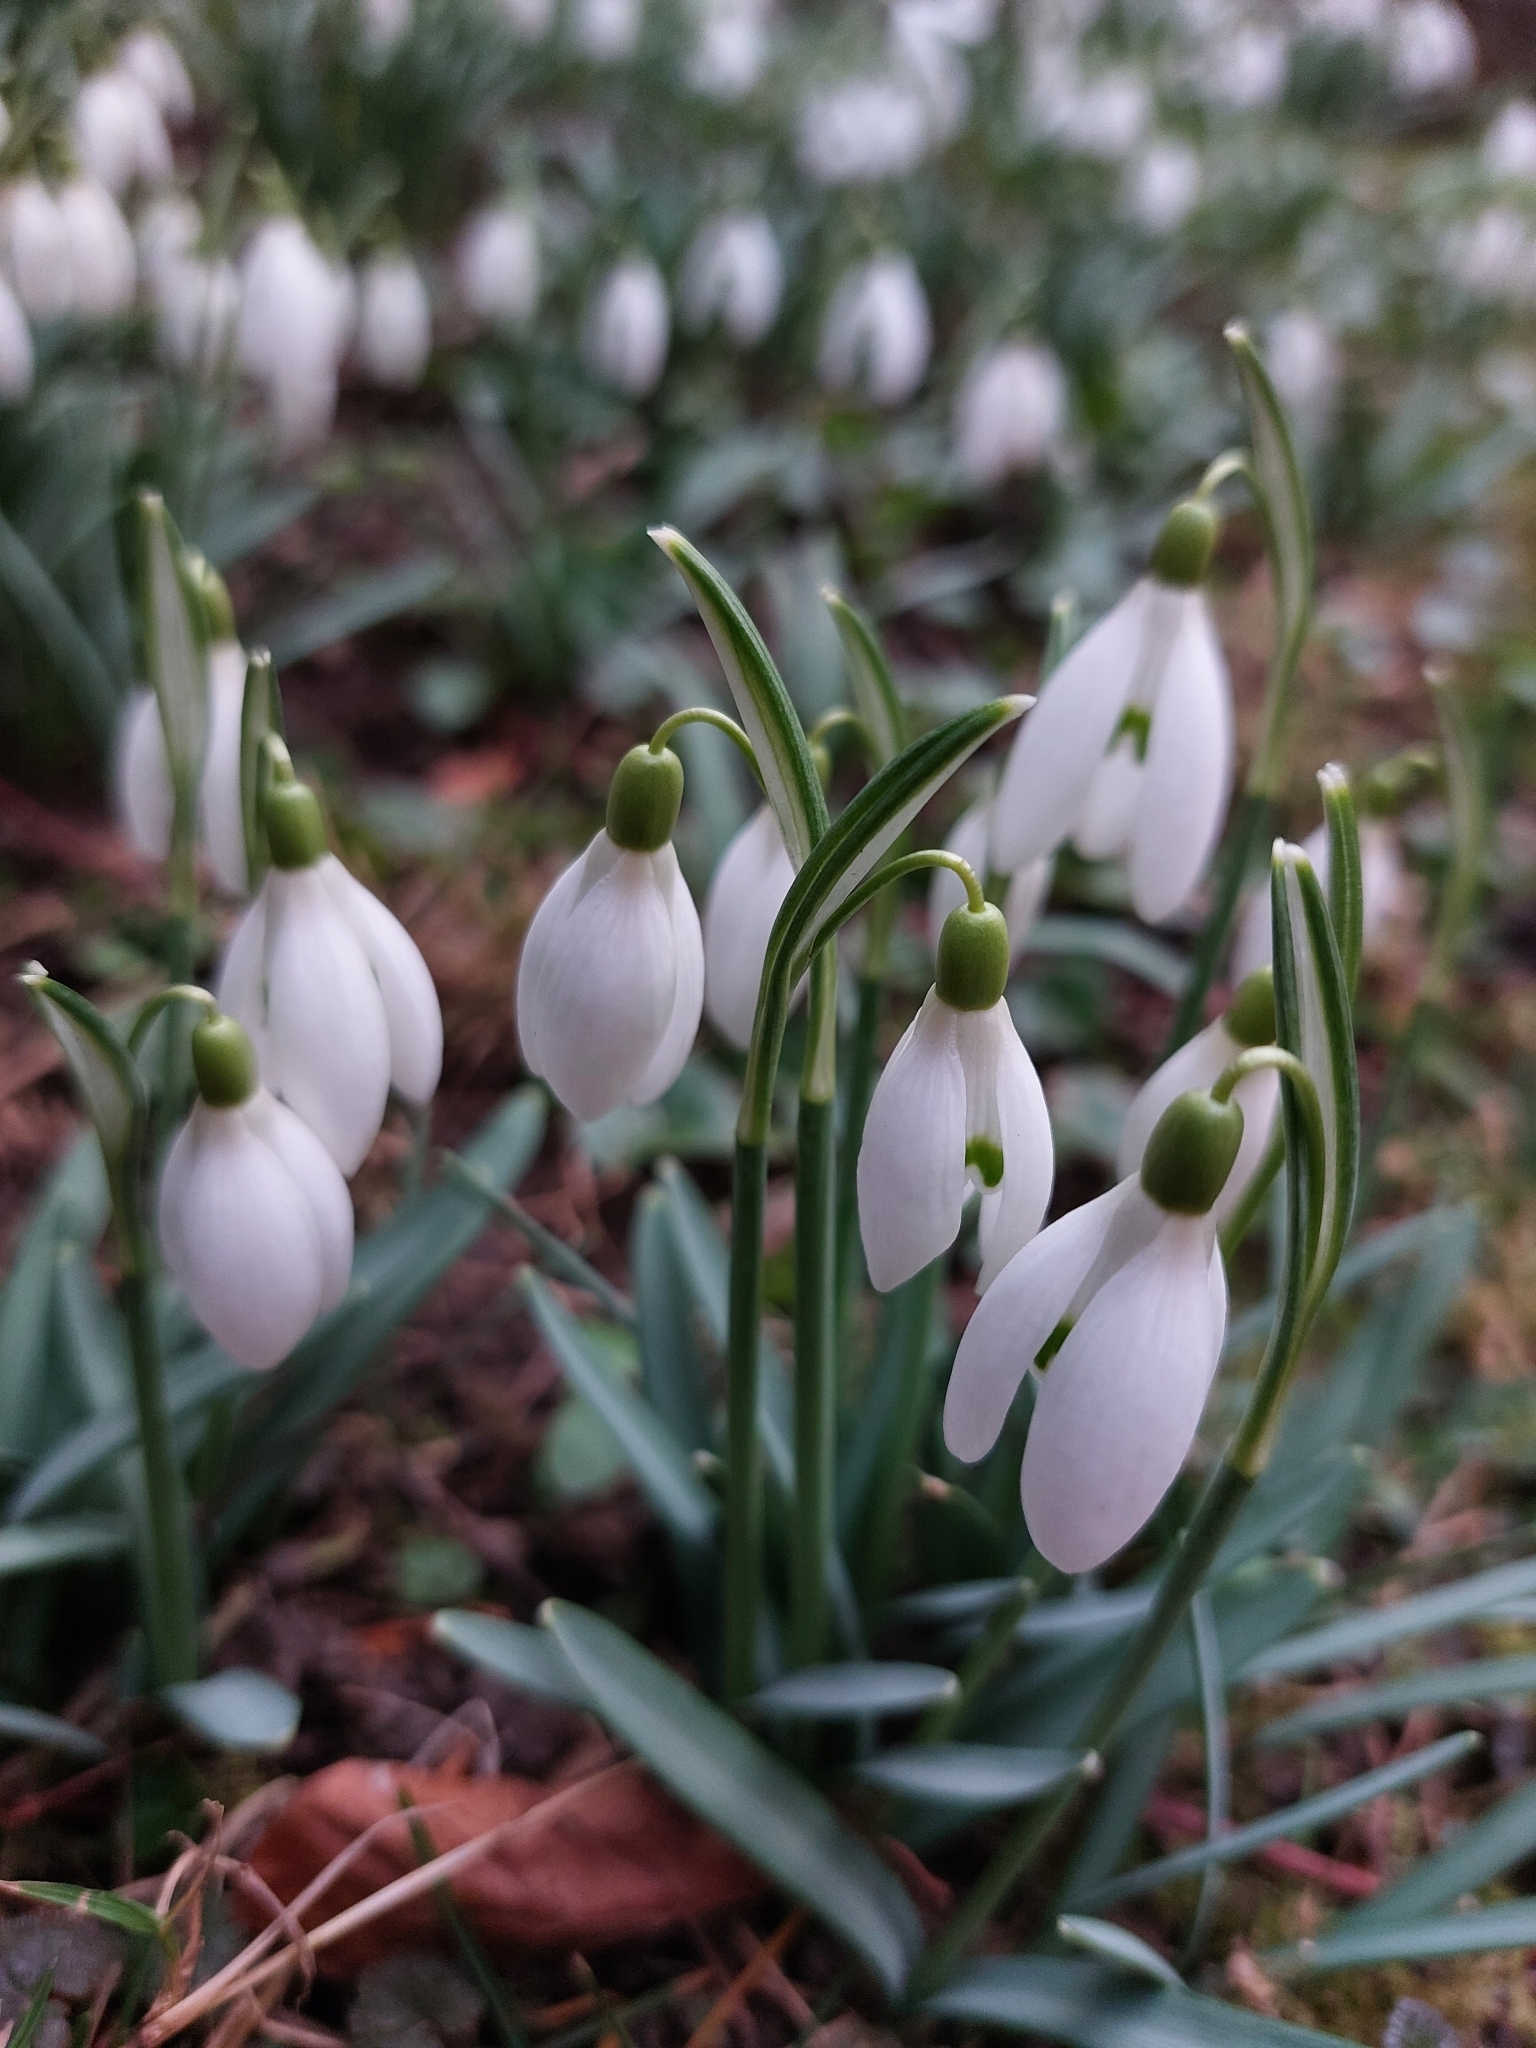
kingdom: Plantae
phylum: Tracheophyta
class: Liliopsida
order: Asparagales
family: Amaryllidaceae
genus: Galanthus
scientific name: Galanthus nivalis
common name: Snowdrop
